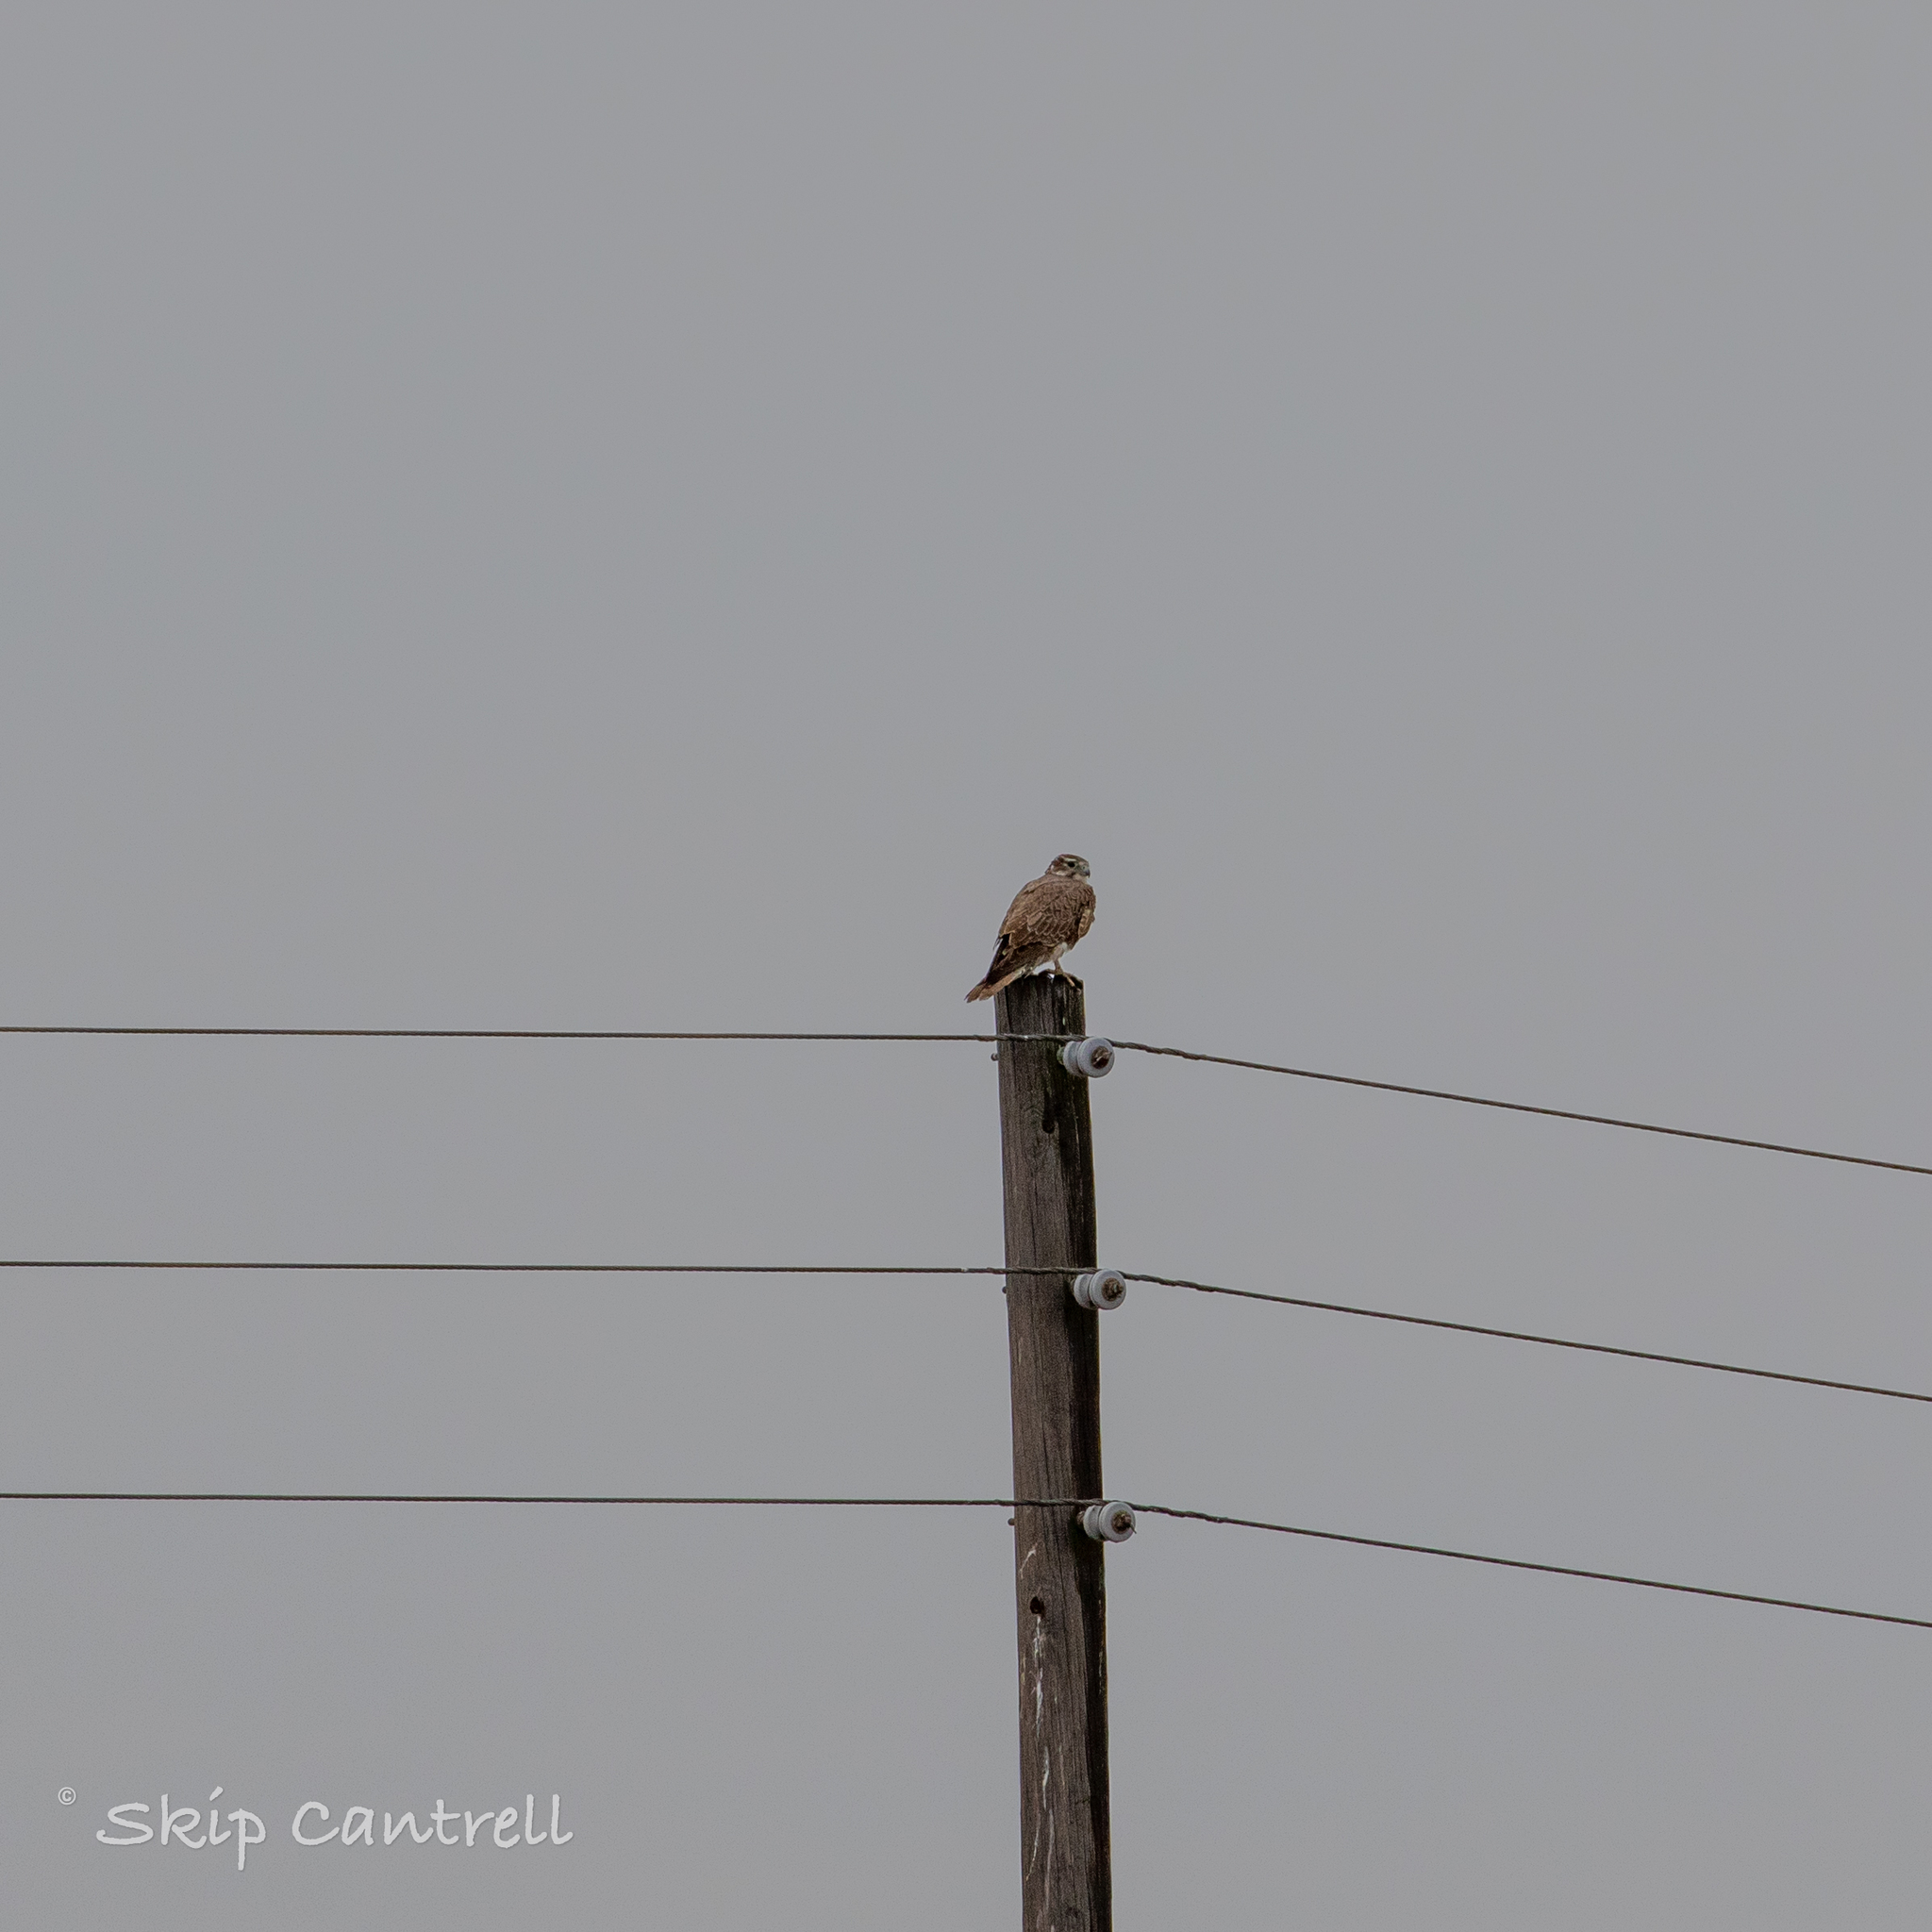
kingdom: Animalia
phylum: Chordata
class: Aves
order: Falconiformes
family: Falconidae
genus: Falco
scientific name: Falco mexicanus
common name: Prairie falcon
